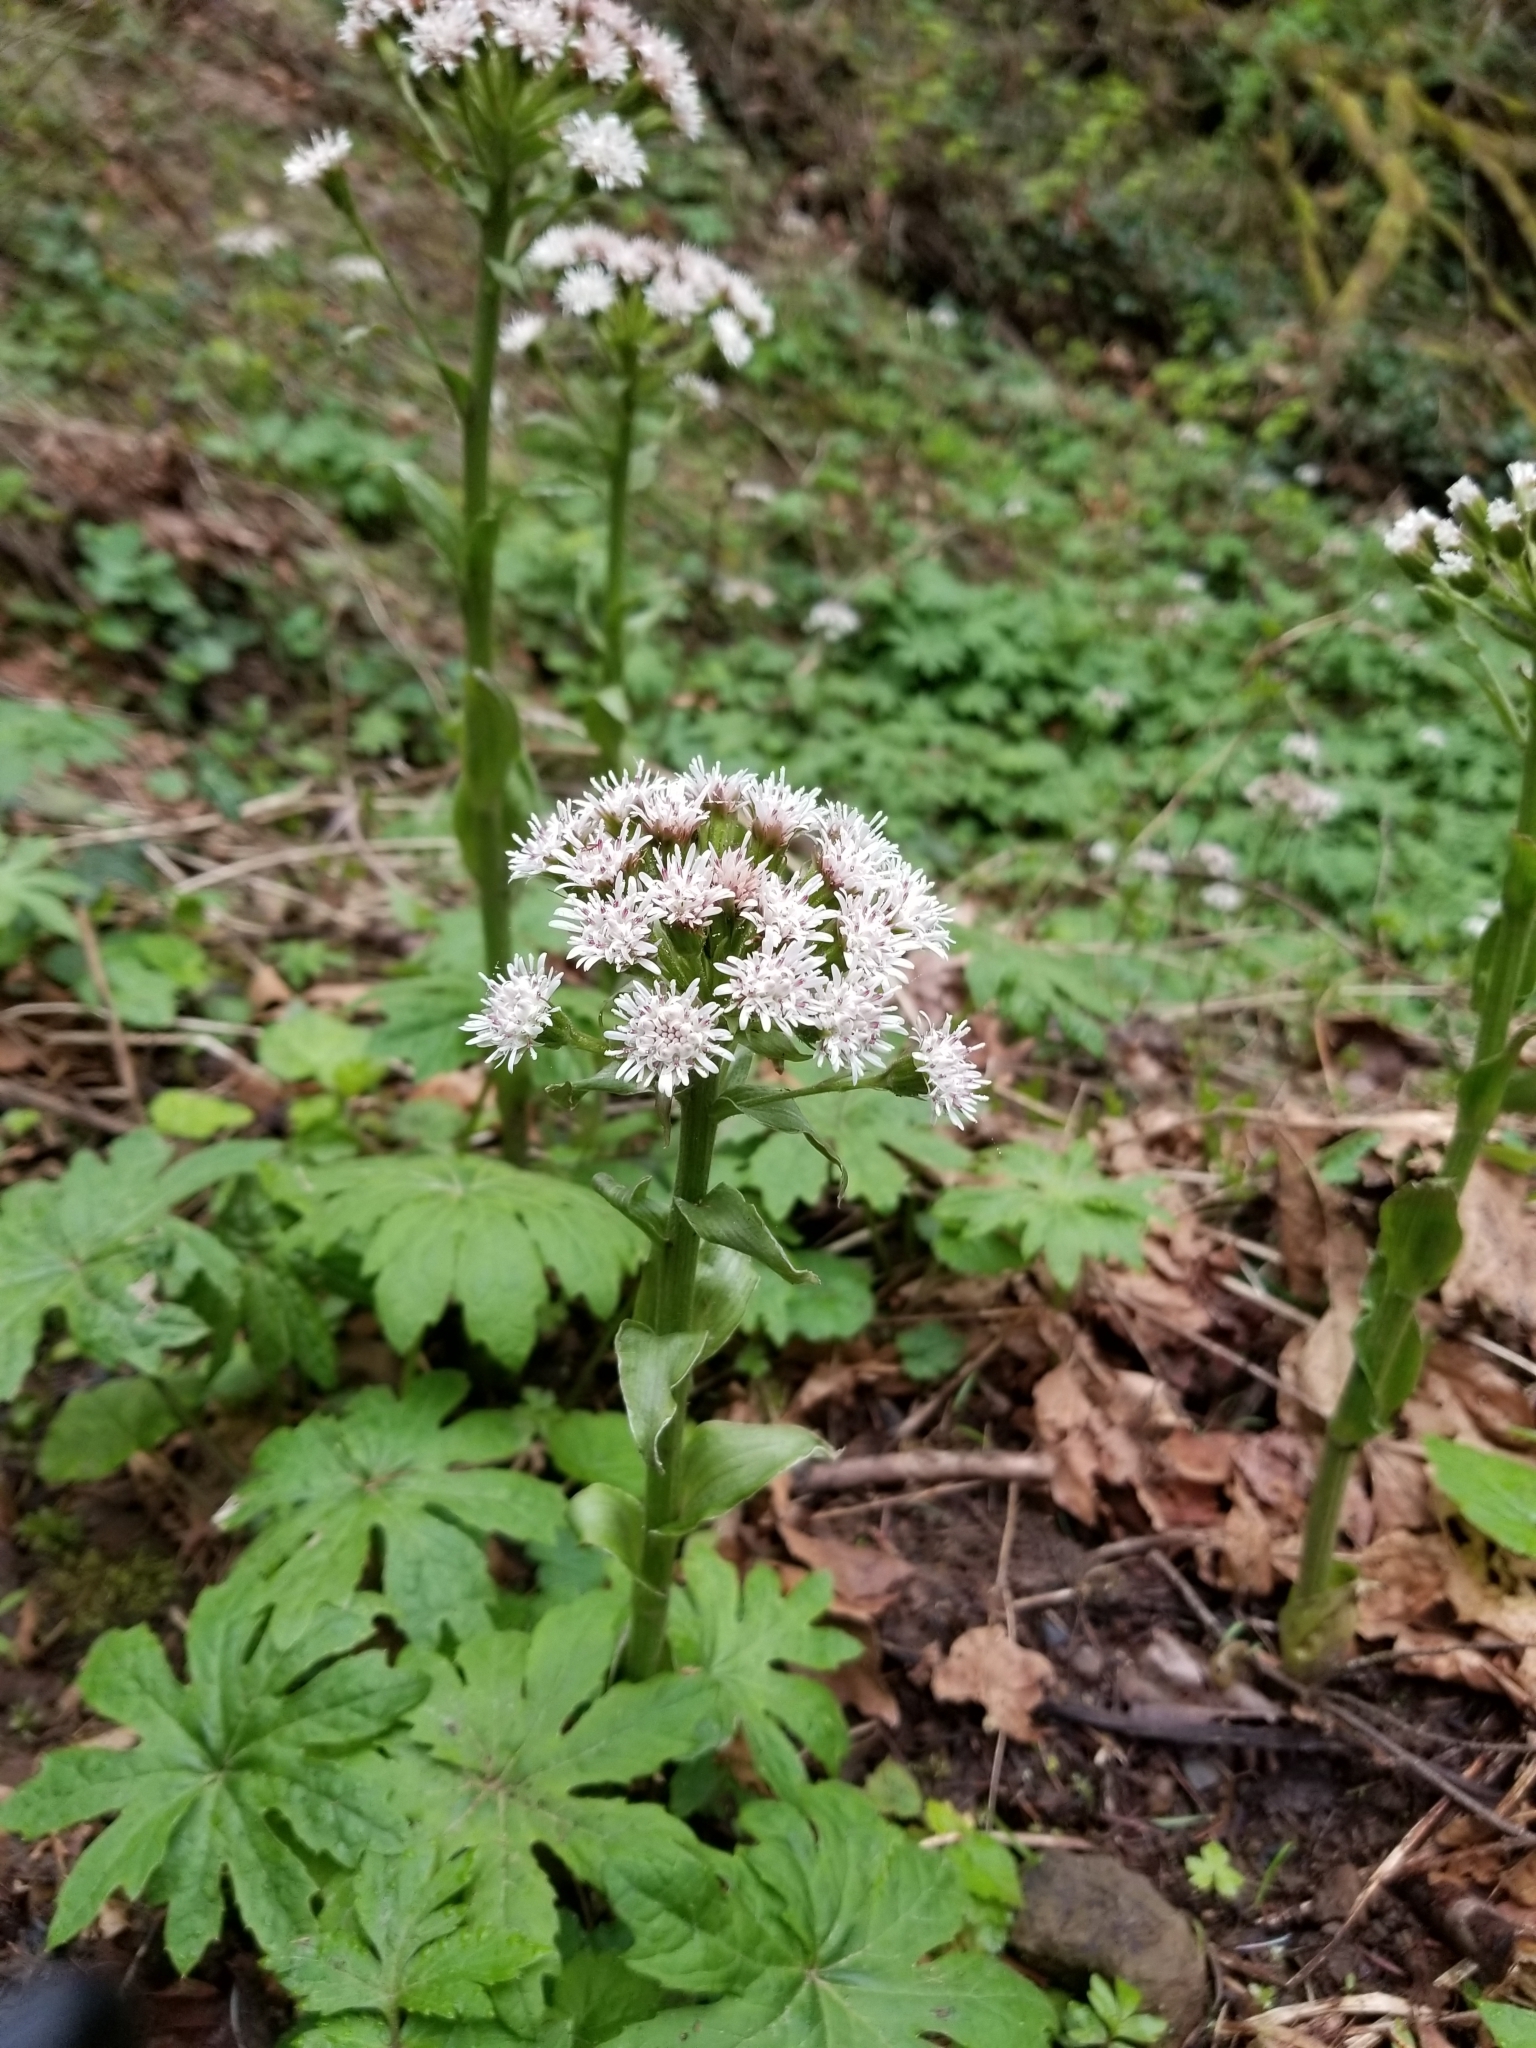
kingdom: Plantae
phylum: Tracheophyta
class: Magnoliopsida
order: Asterales
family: Asteraceae
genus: Petasites
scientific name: Petasites frigidus
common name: Arctic butterbur
